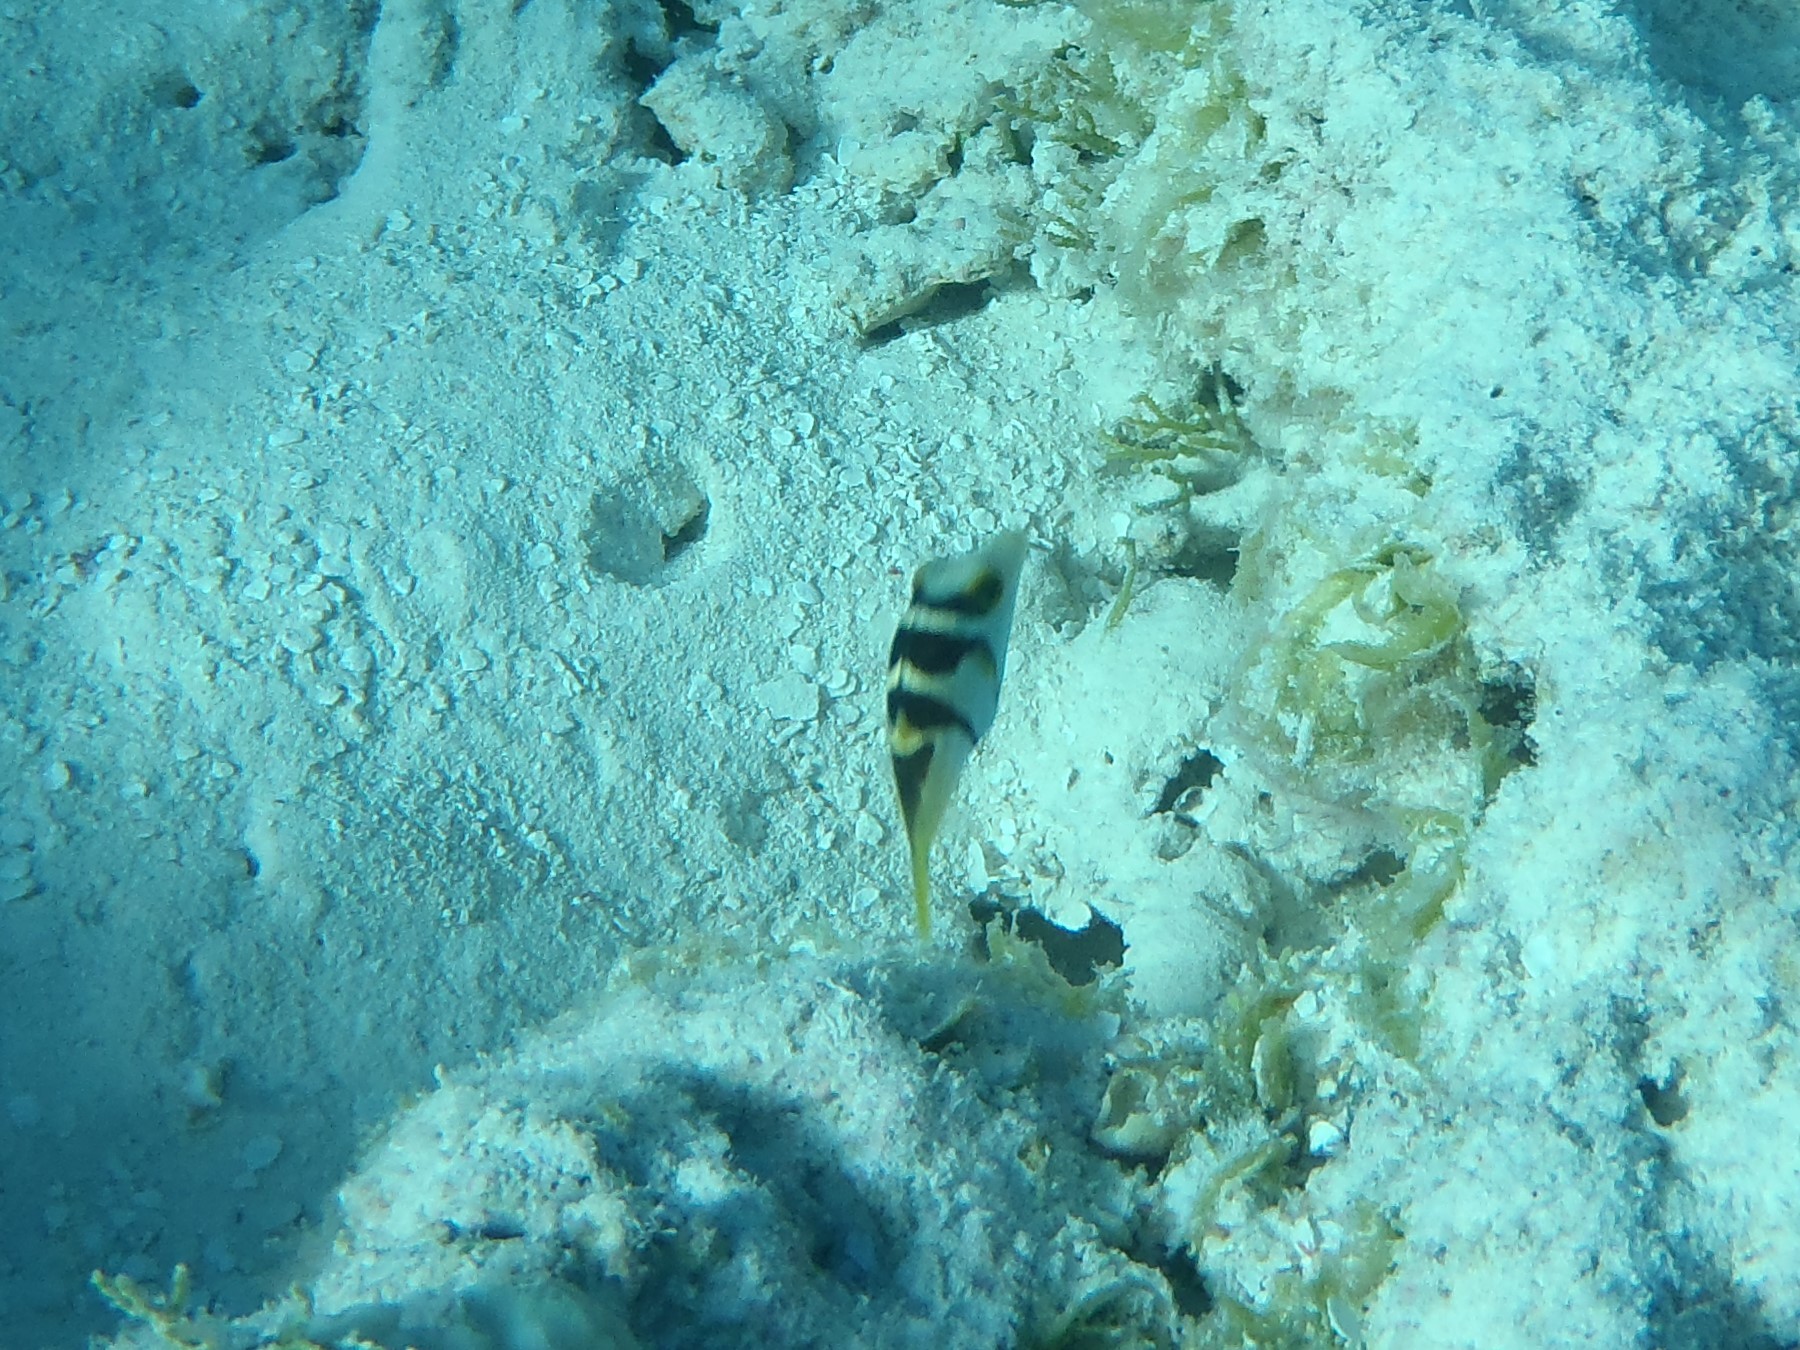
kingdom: Animalia
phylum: Chordata
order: Tetraodontiformes
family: Tetraodontidae
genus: Canthigaster
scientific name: Canthigaster valentini
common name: Banded toby
